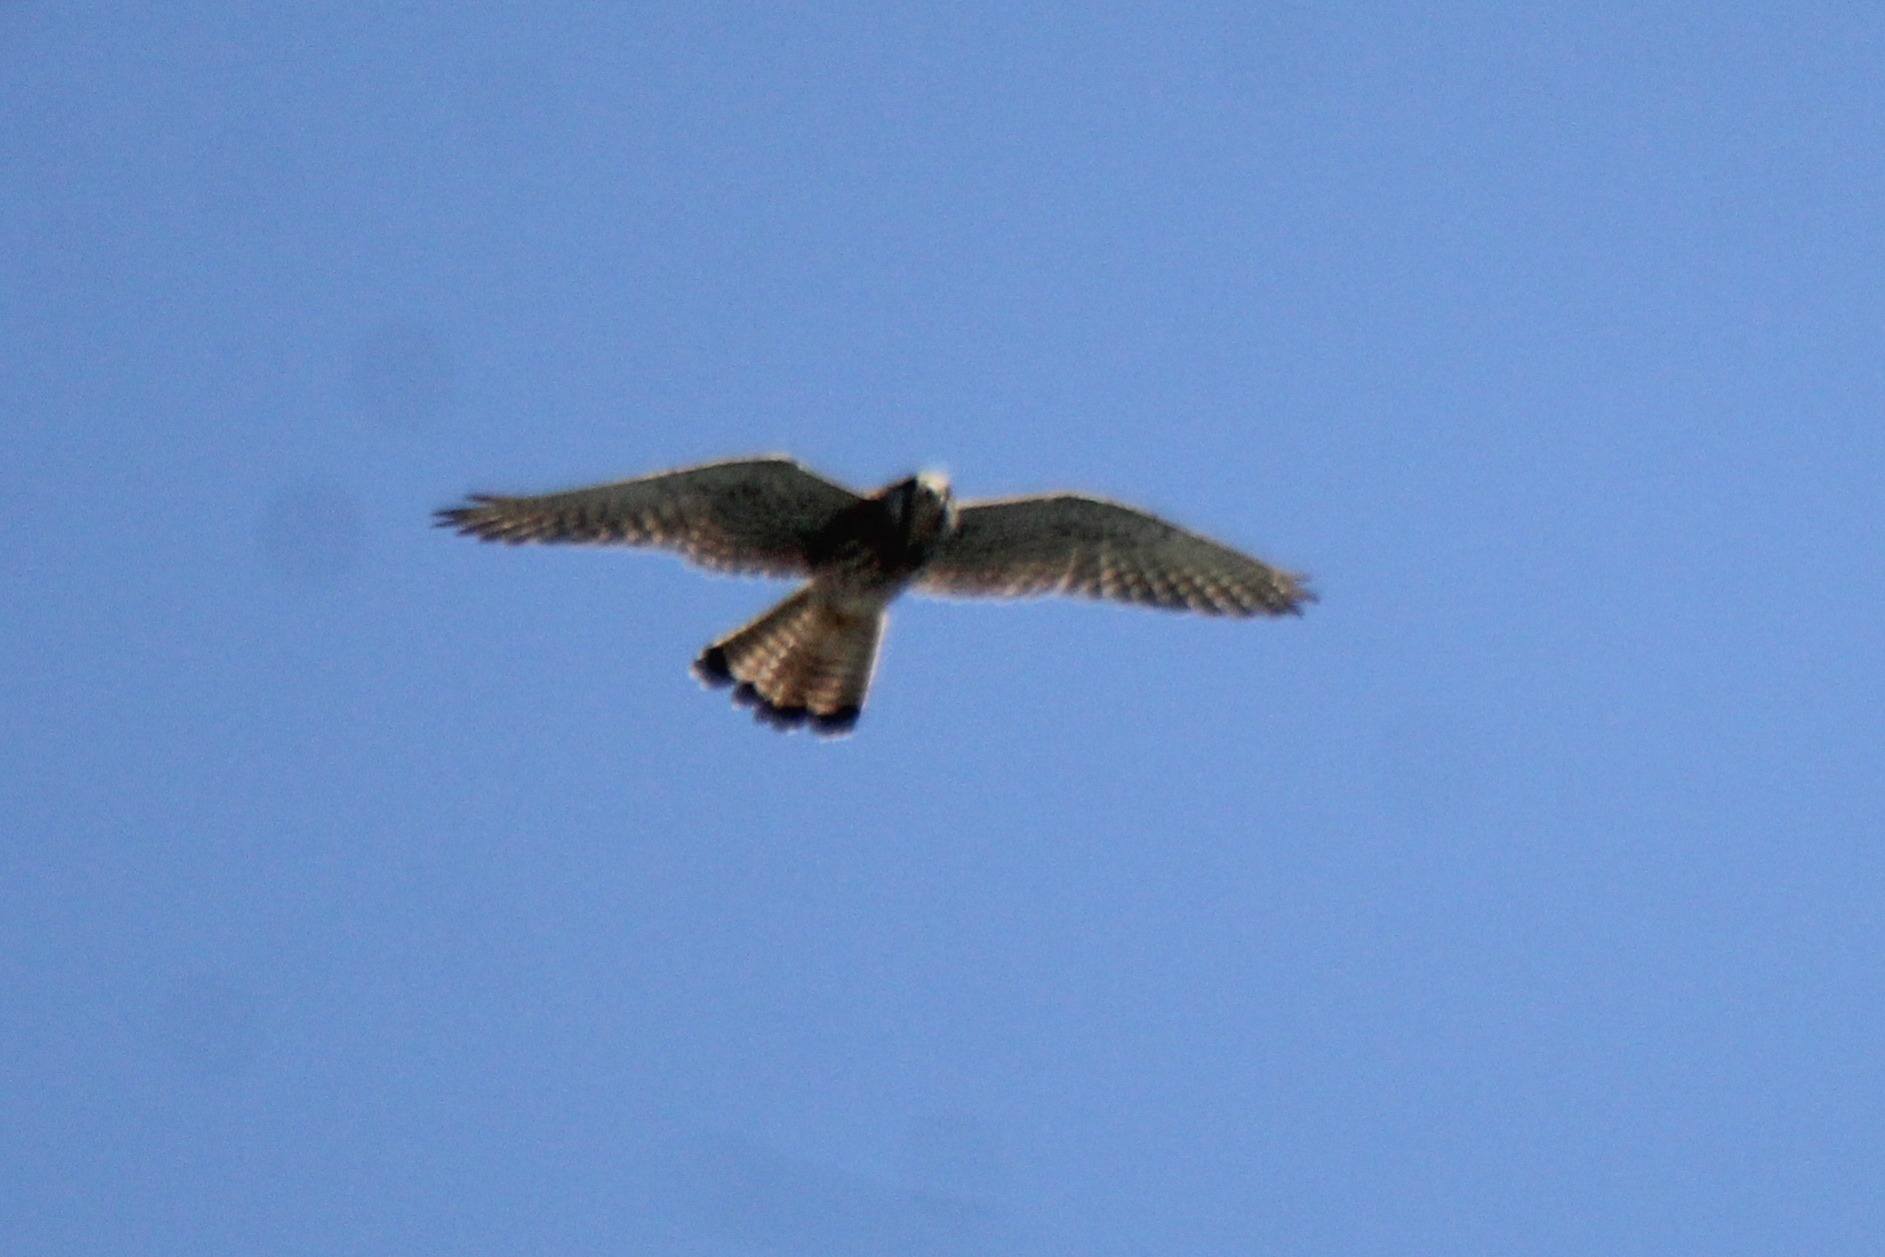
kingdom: Animalia
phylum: Chordata
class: Aves
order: Falconiformes
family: Falconidae
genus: Falco
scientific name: Falco tinnunculus
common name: Common kestrel
